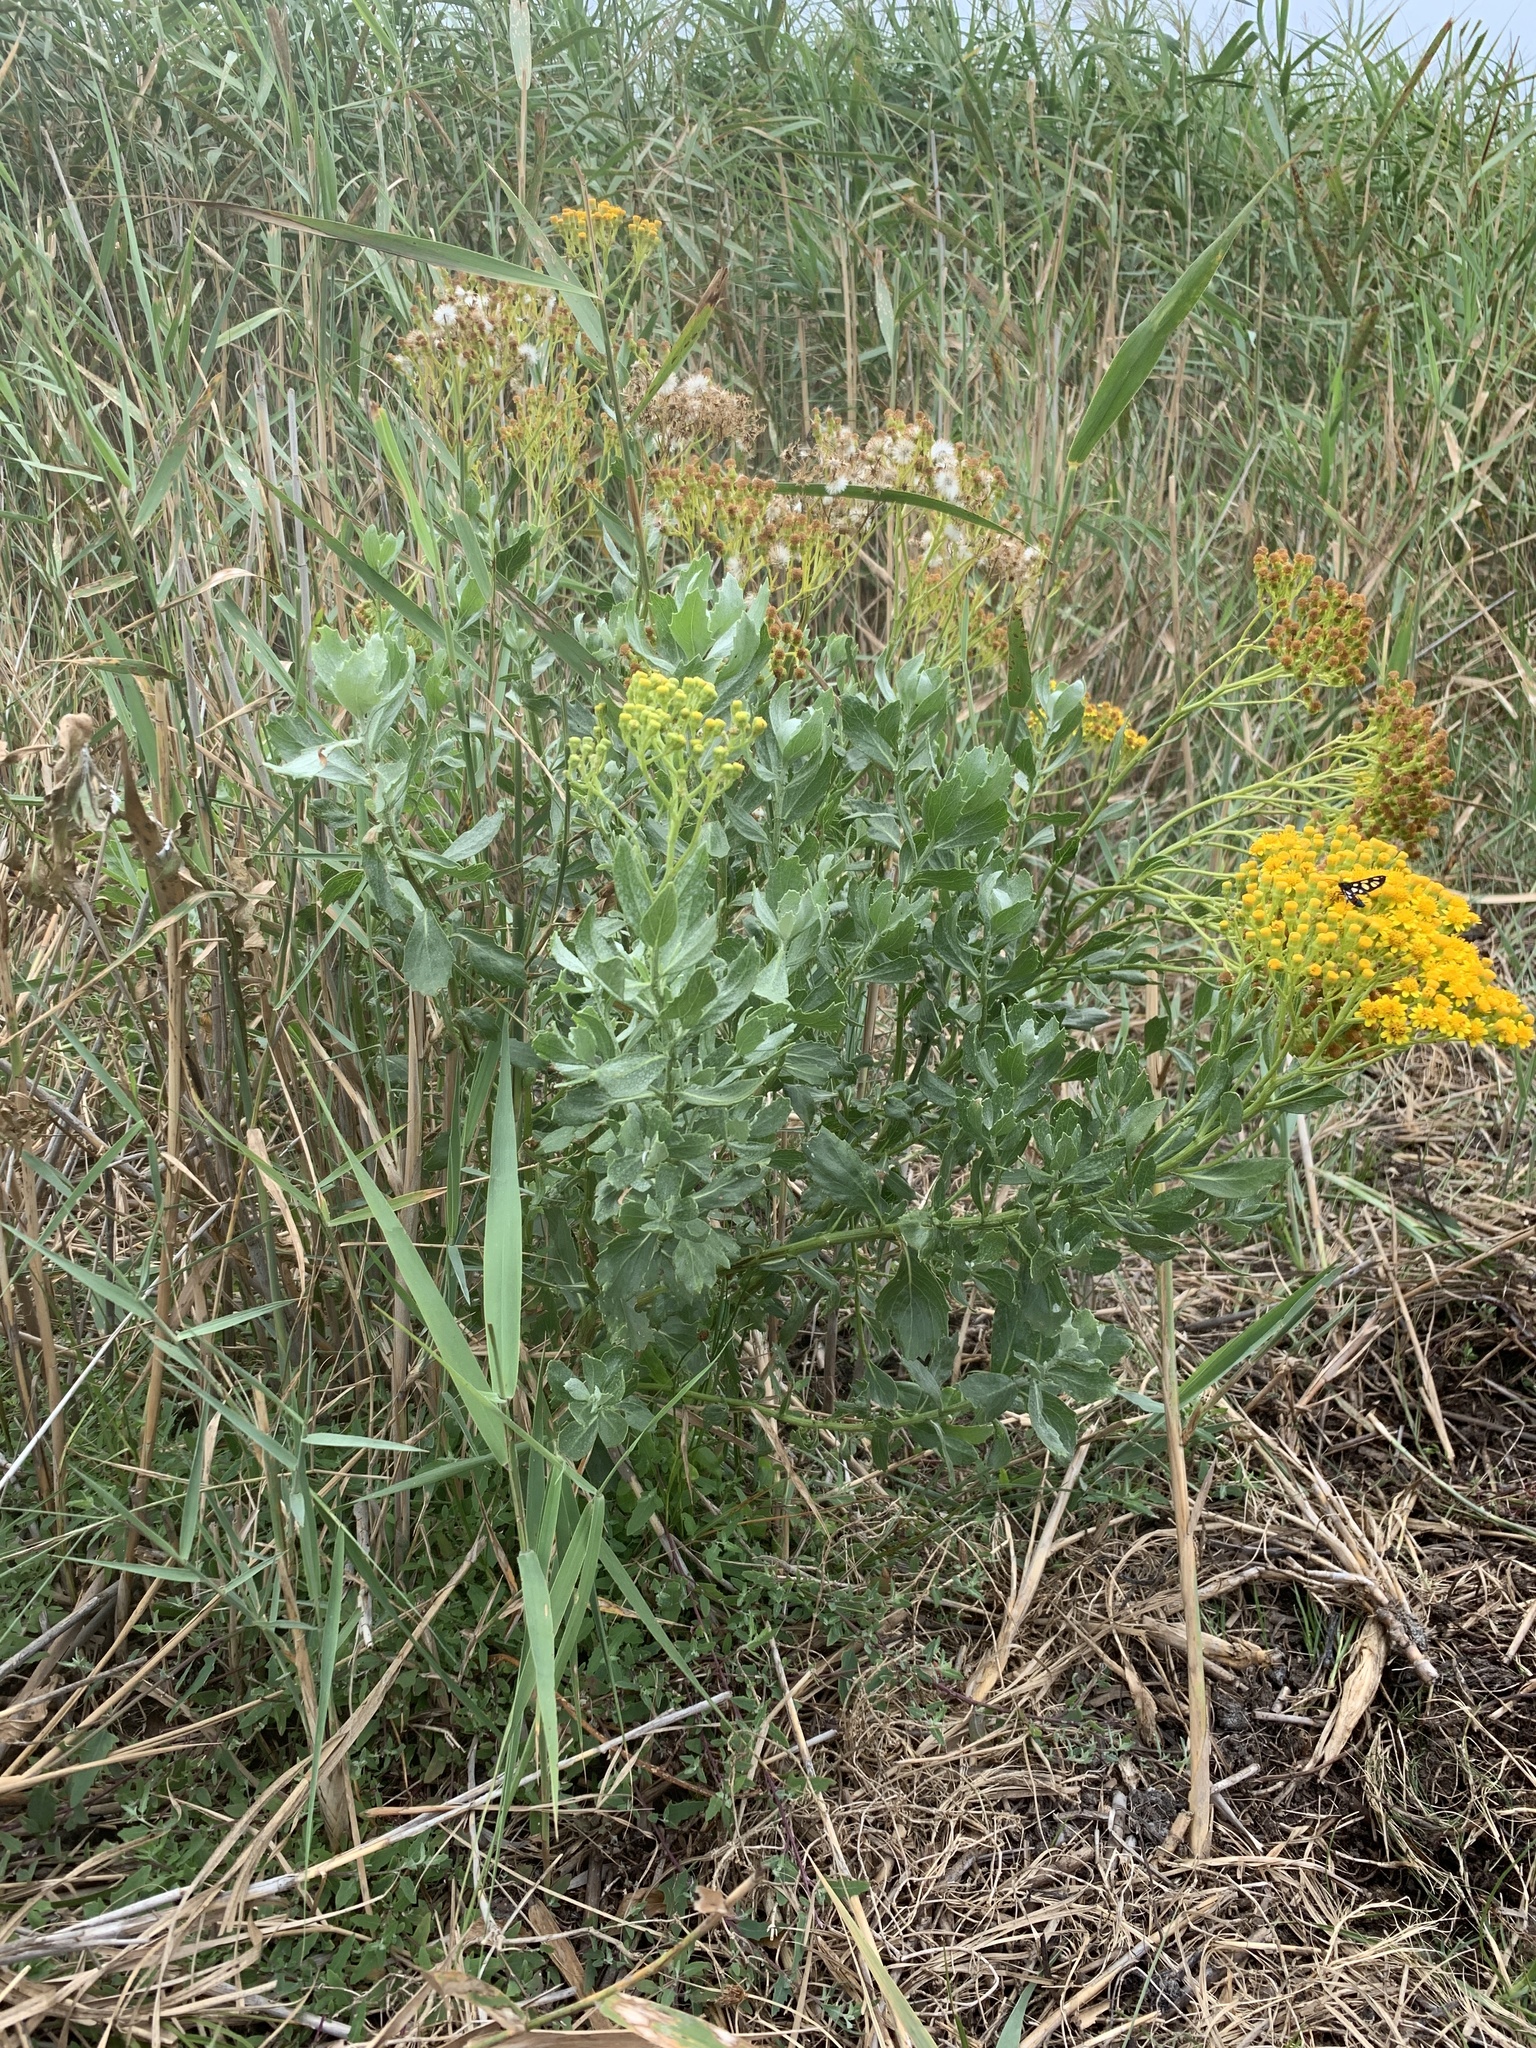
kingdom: Plantae
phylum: Tracheophyta
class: Magnoliopsida
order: Asterales
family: Asteraceae
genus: Senecio
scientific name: Senecio halimifolius
